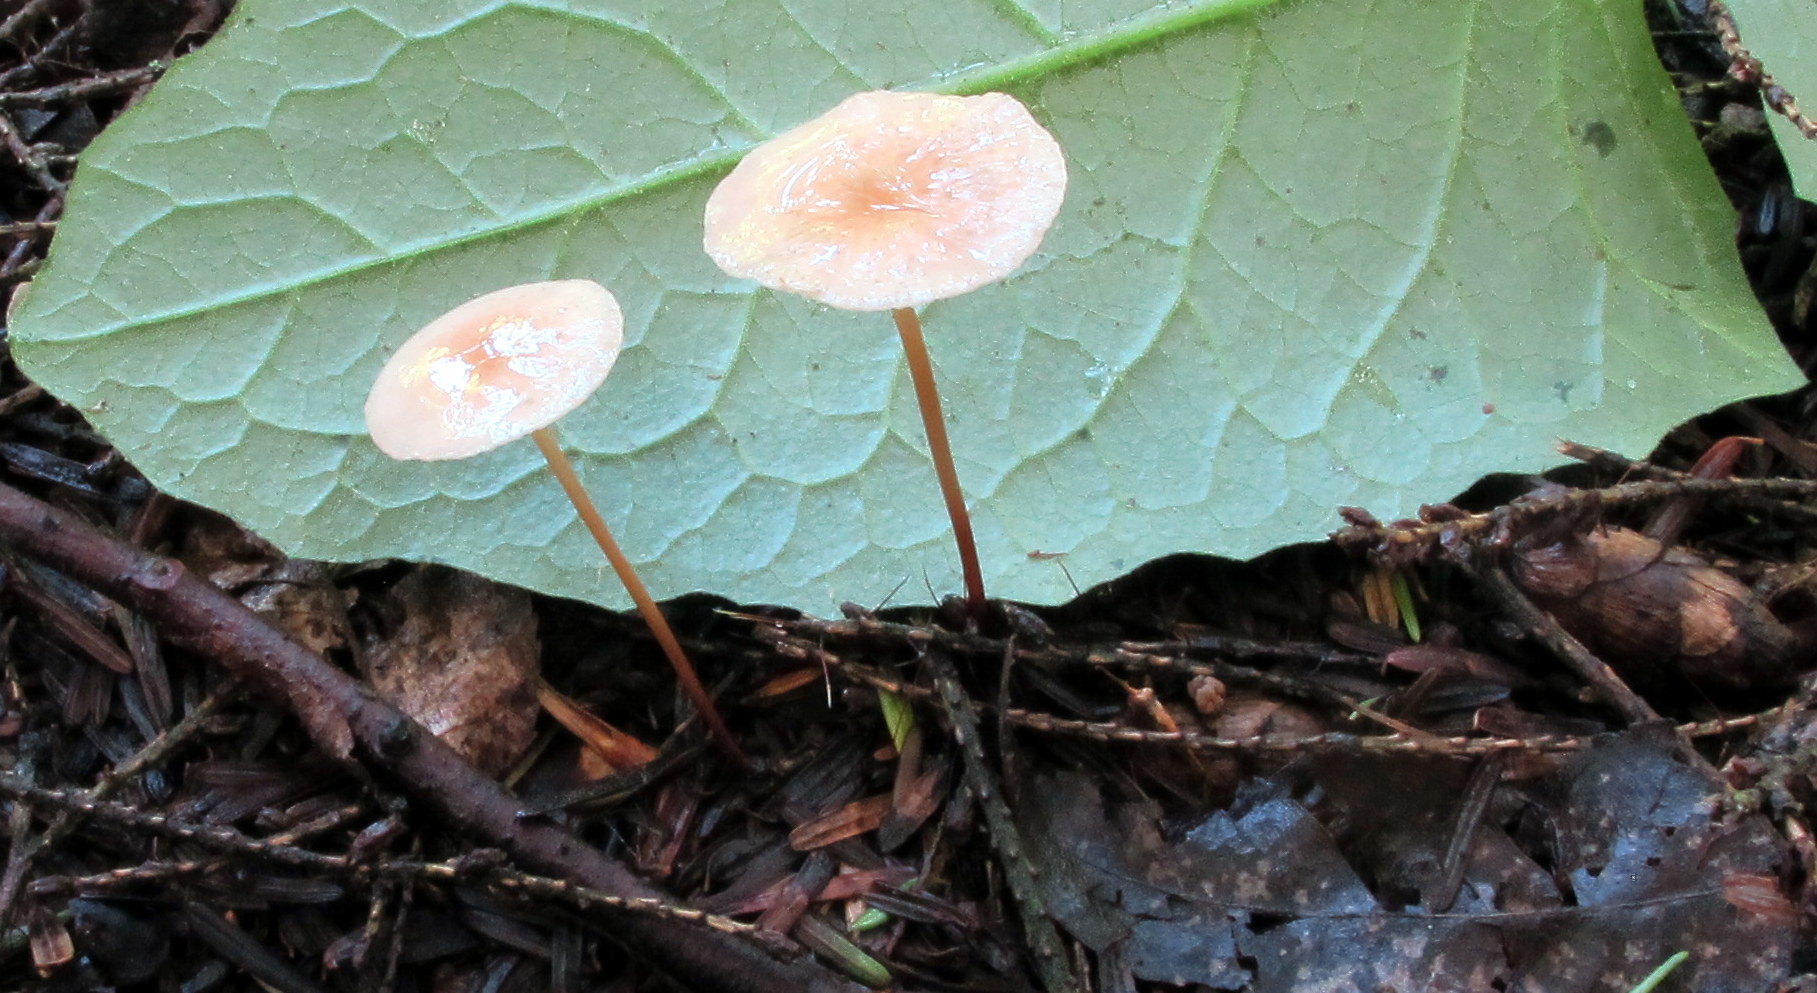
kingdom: Fungi
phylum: Basidiomycota
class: Agaricomycetes
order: Agaricales
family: Omphalotaceae
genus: Mycetinis
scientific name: Mycetinis scorodonius
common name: Vampires bane
